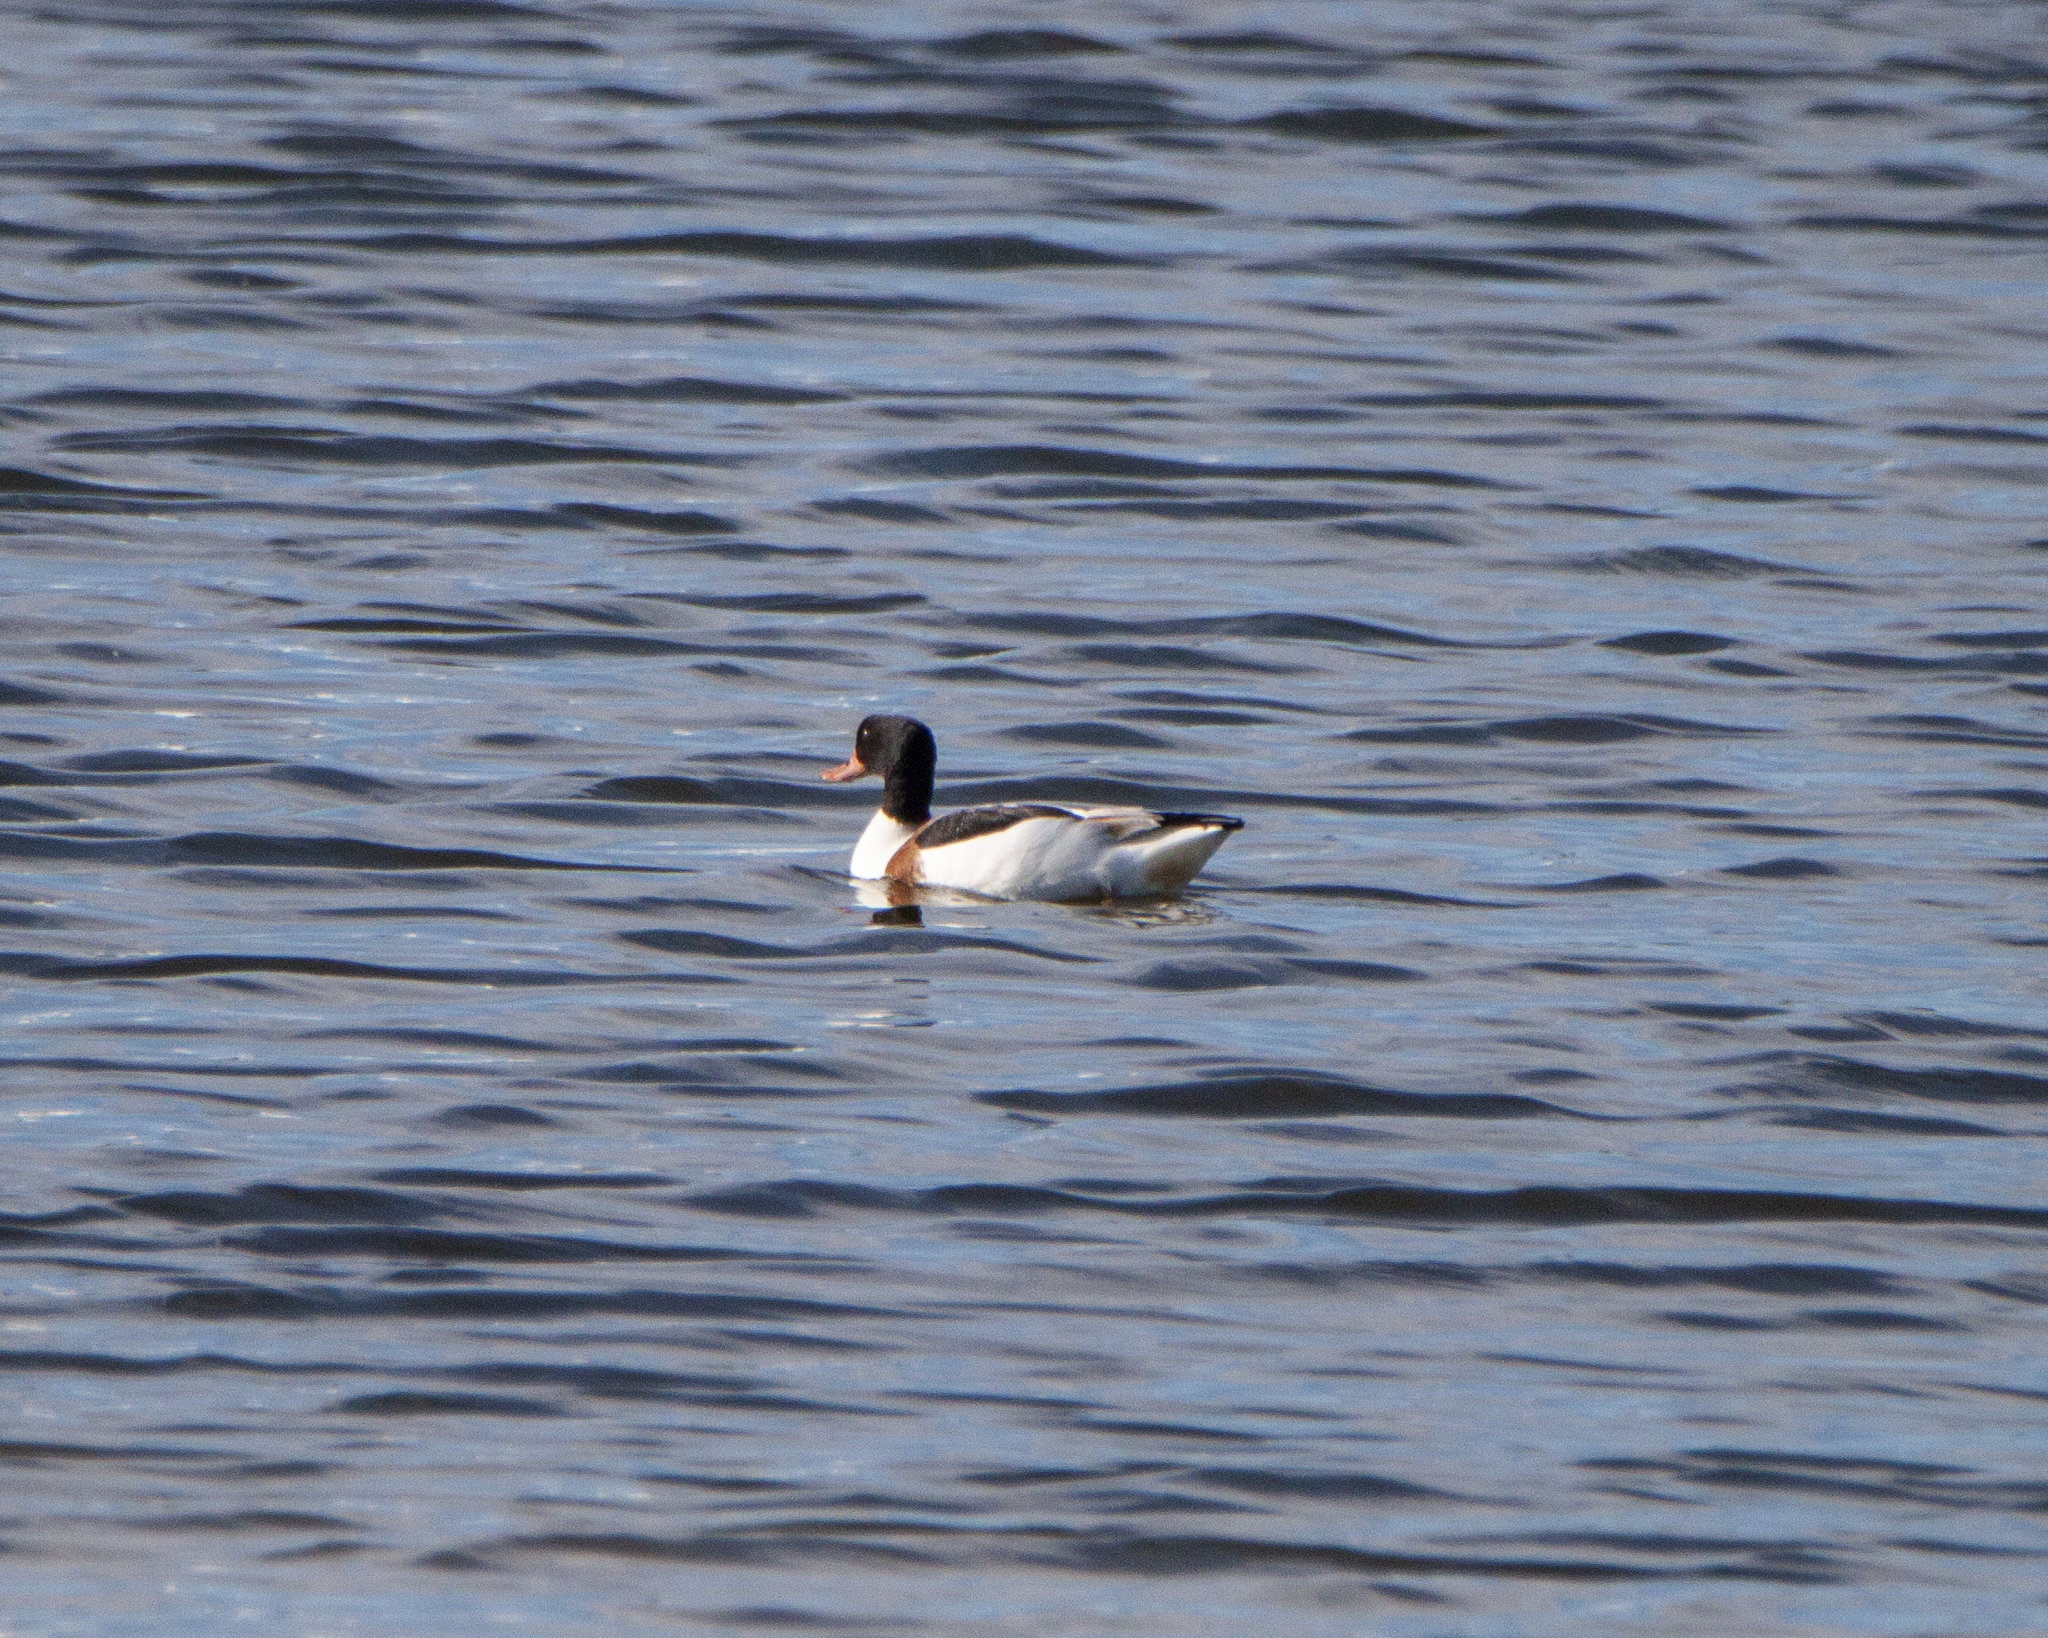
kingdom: Animalia
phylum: Chordata
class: Aves
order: Anseriformes
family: Anatidae
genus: Tadorna
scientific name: Tadorna tadorna
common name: Common shelduck
